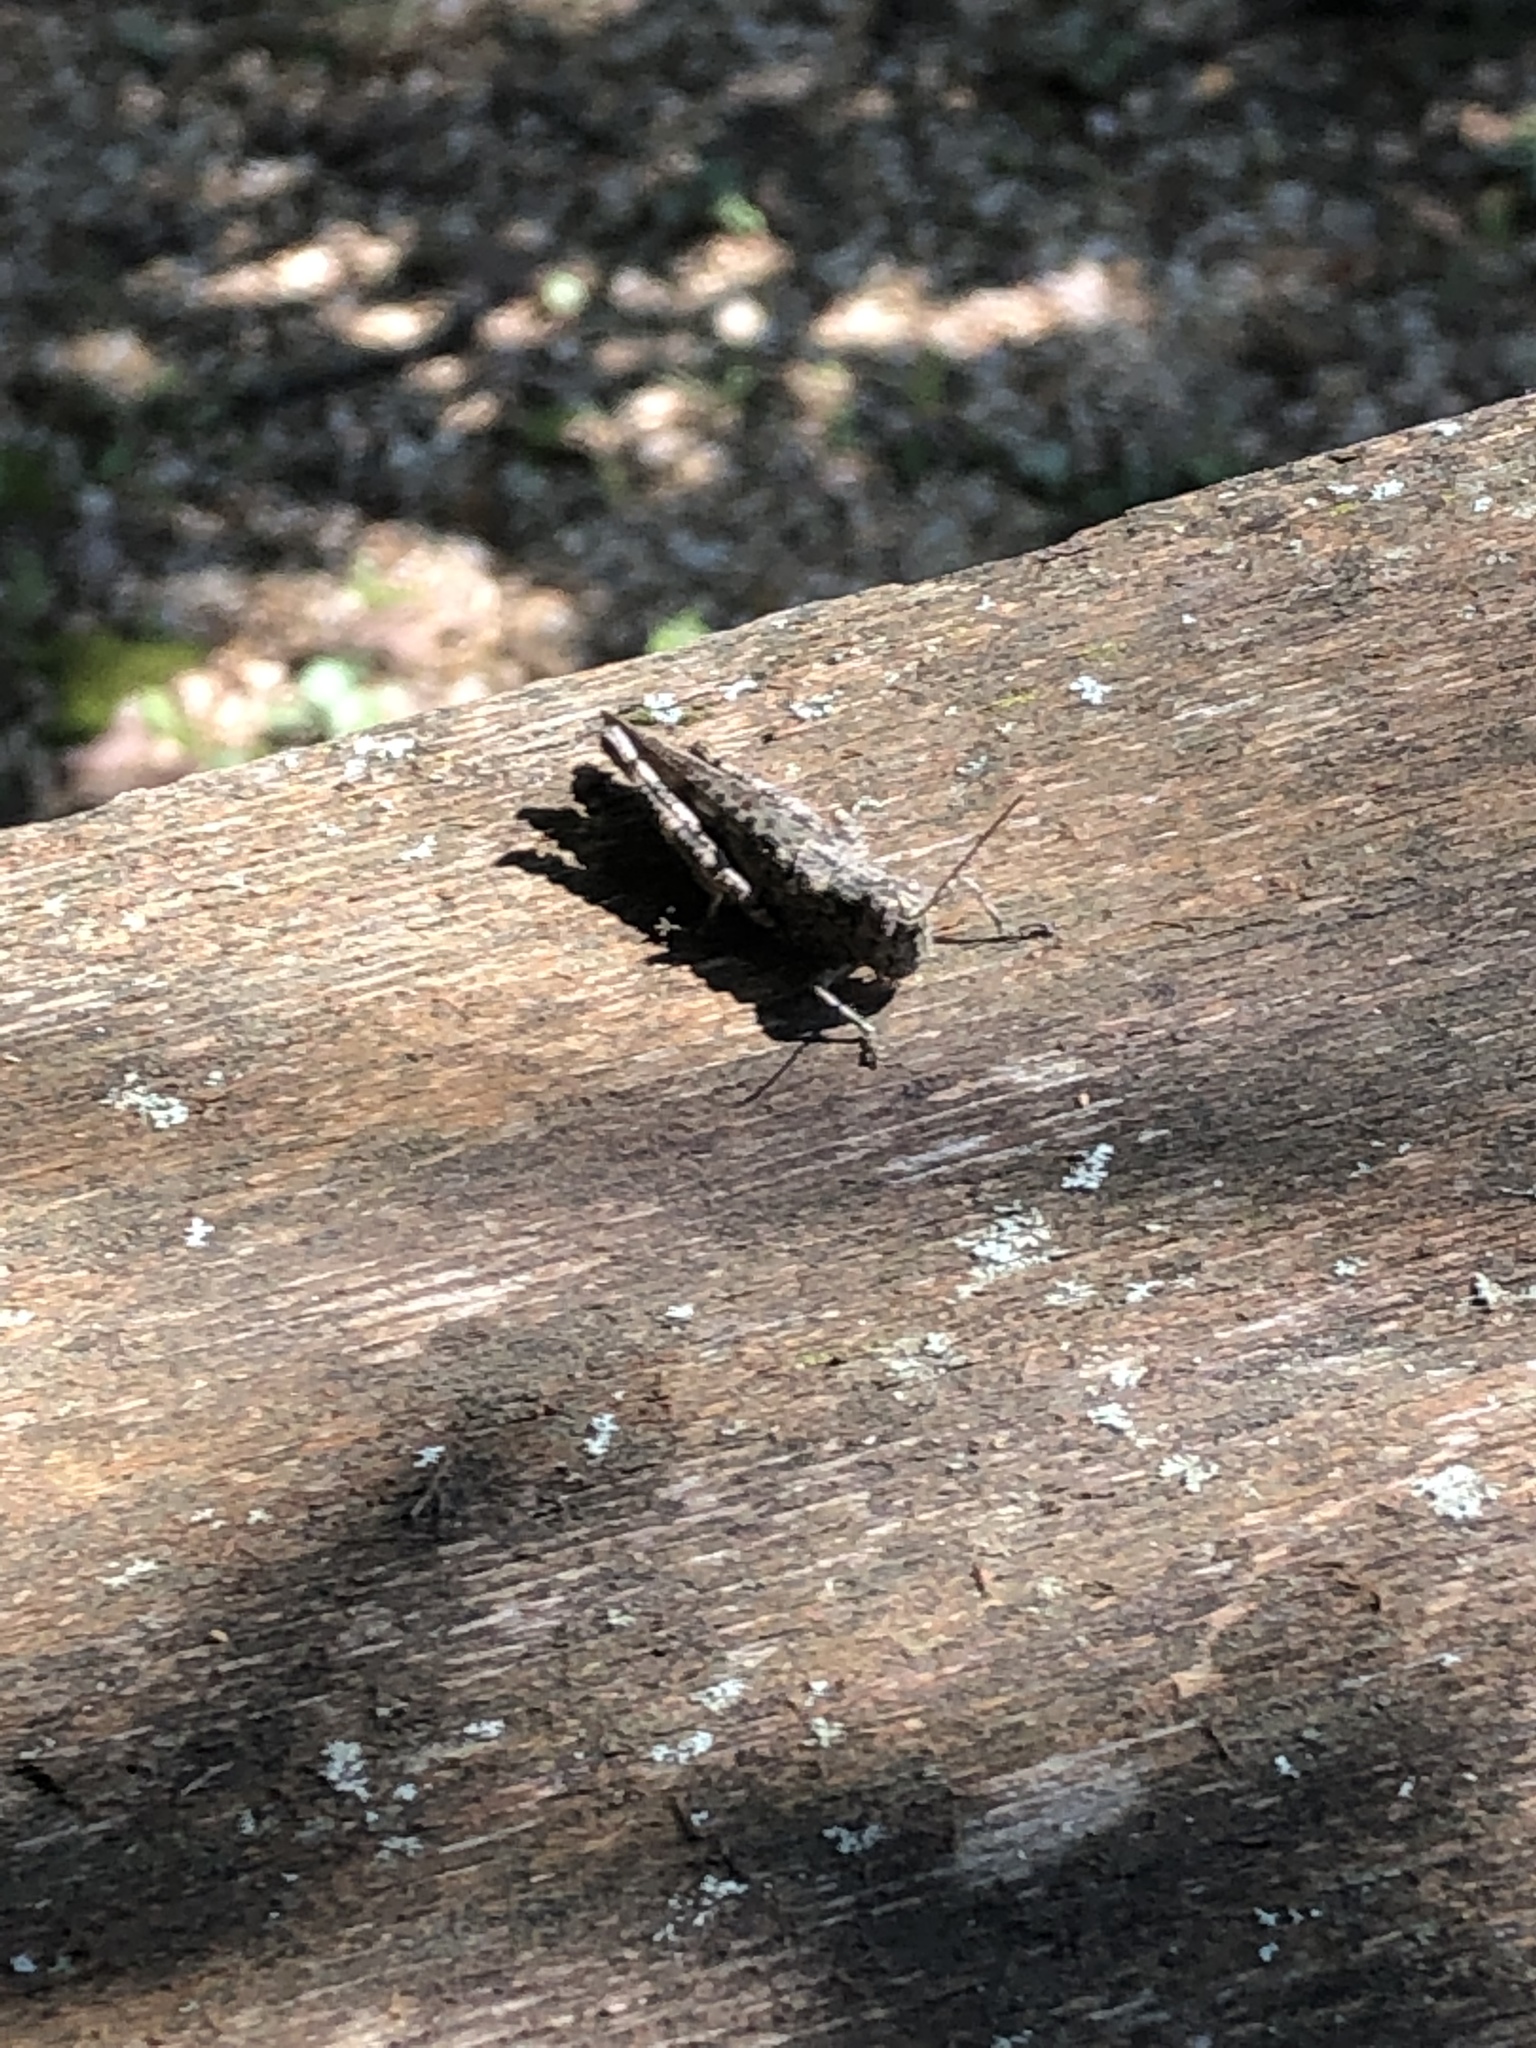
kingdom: Animalia
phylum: Arthropoda
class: Insecta
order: Orthoptera
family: Acrididae
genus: Melanoplus
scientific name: Melanoplus punctulatus
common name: Pine-tree spur-throat grasshopper
